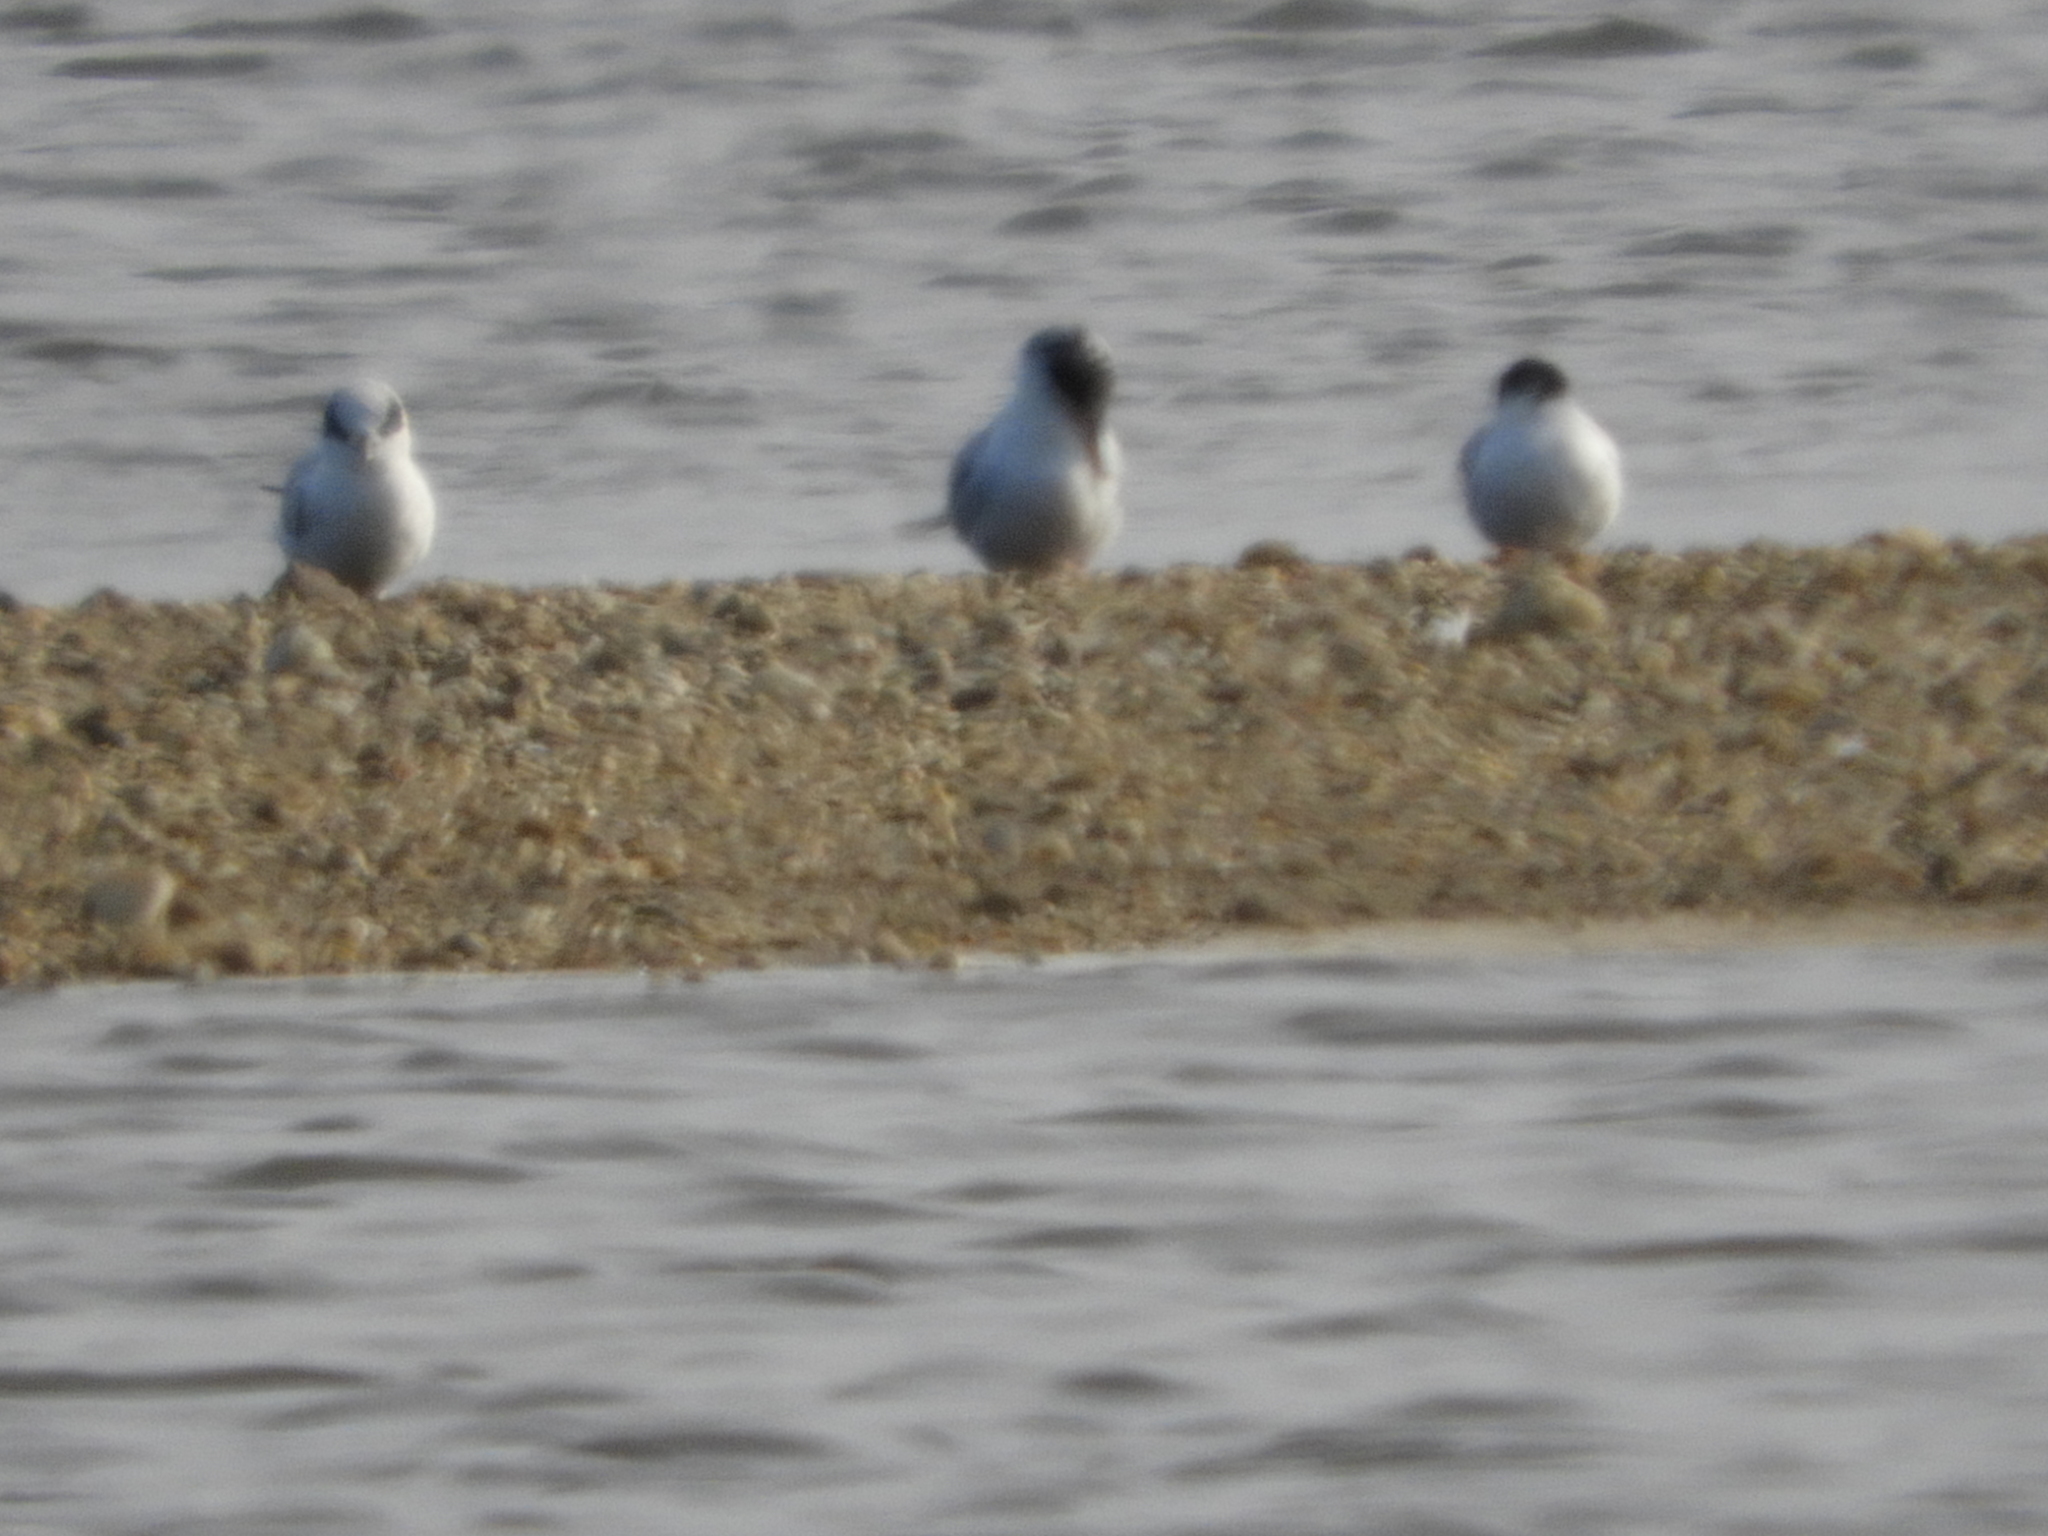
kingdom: Animalia
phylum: Chordata
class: Aves
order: Charadriiformes
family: Laridae
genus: Sterna
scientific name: Sterna forsteri
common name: Forster's tern
